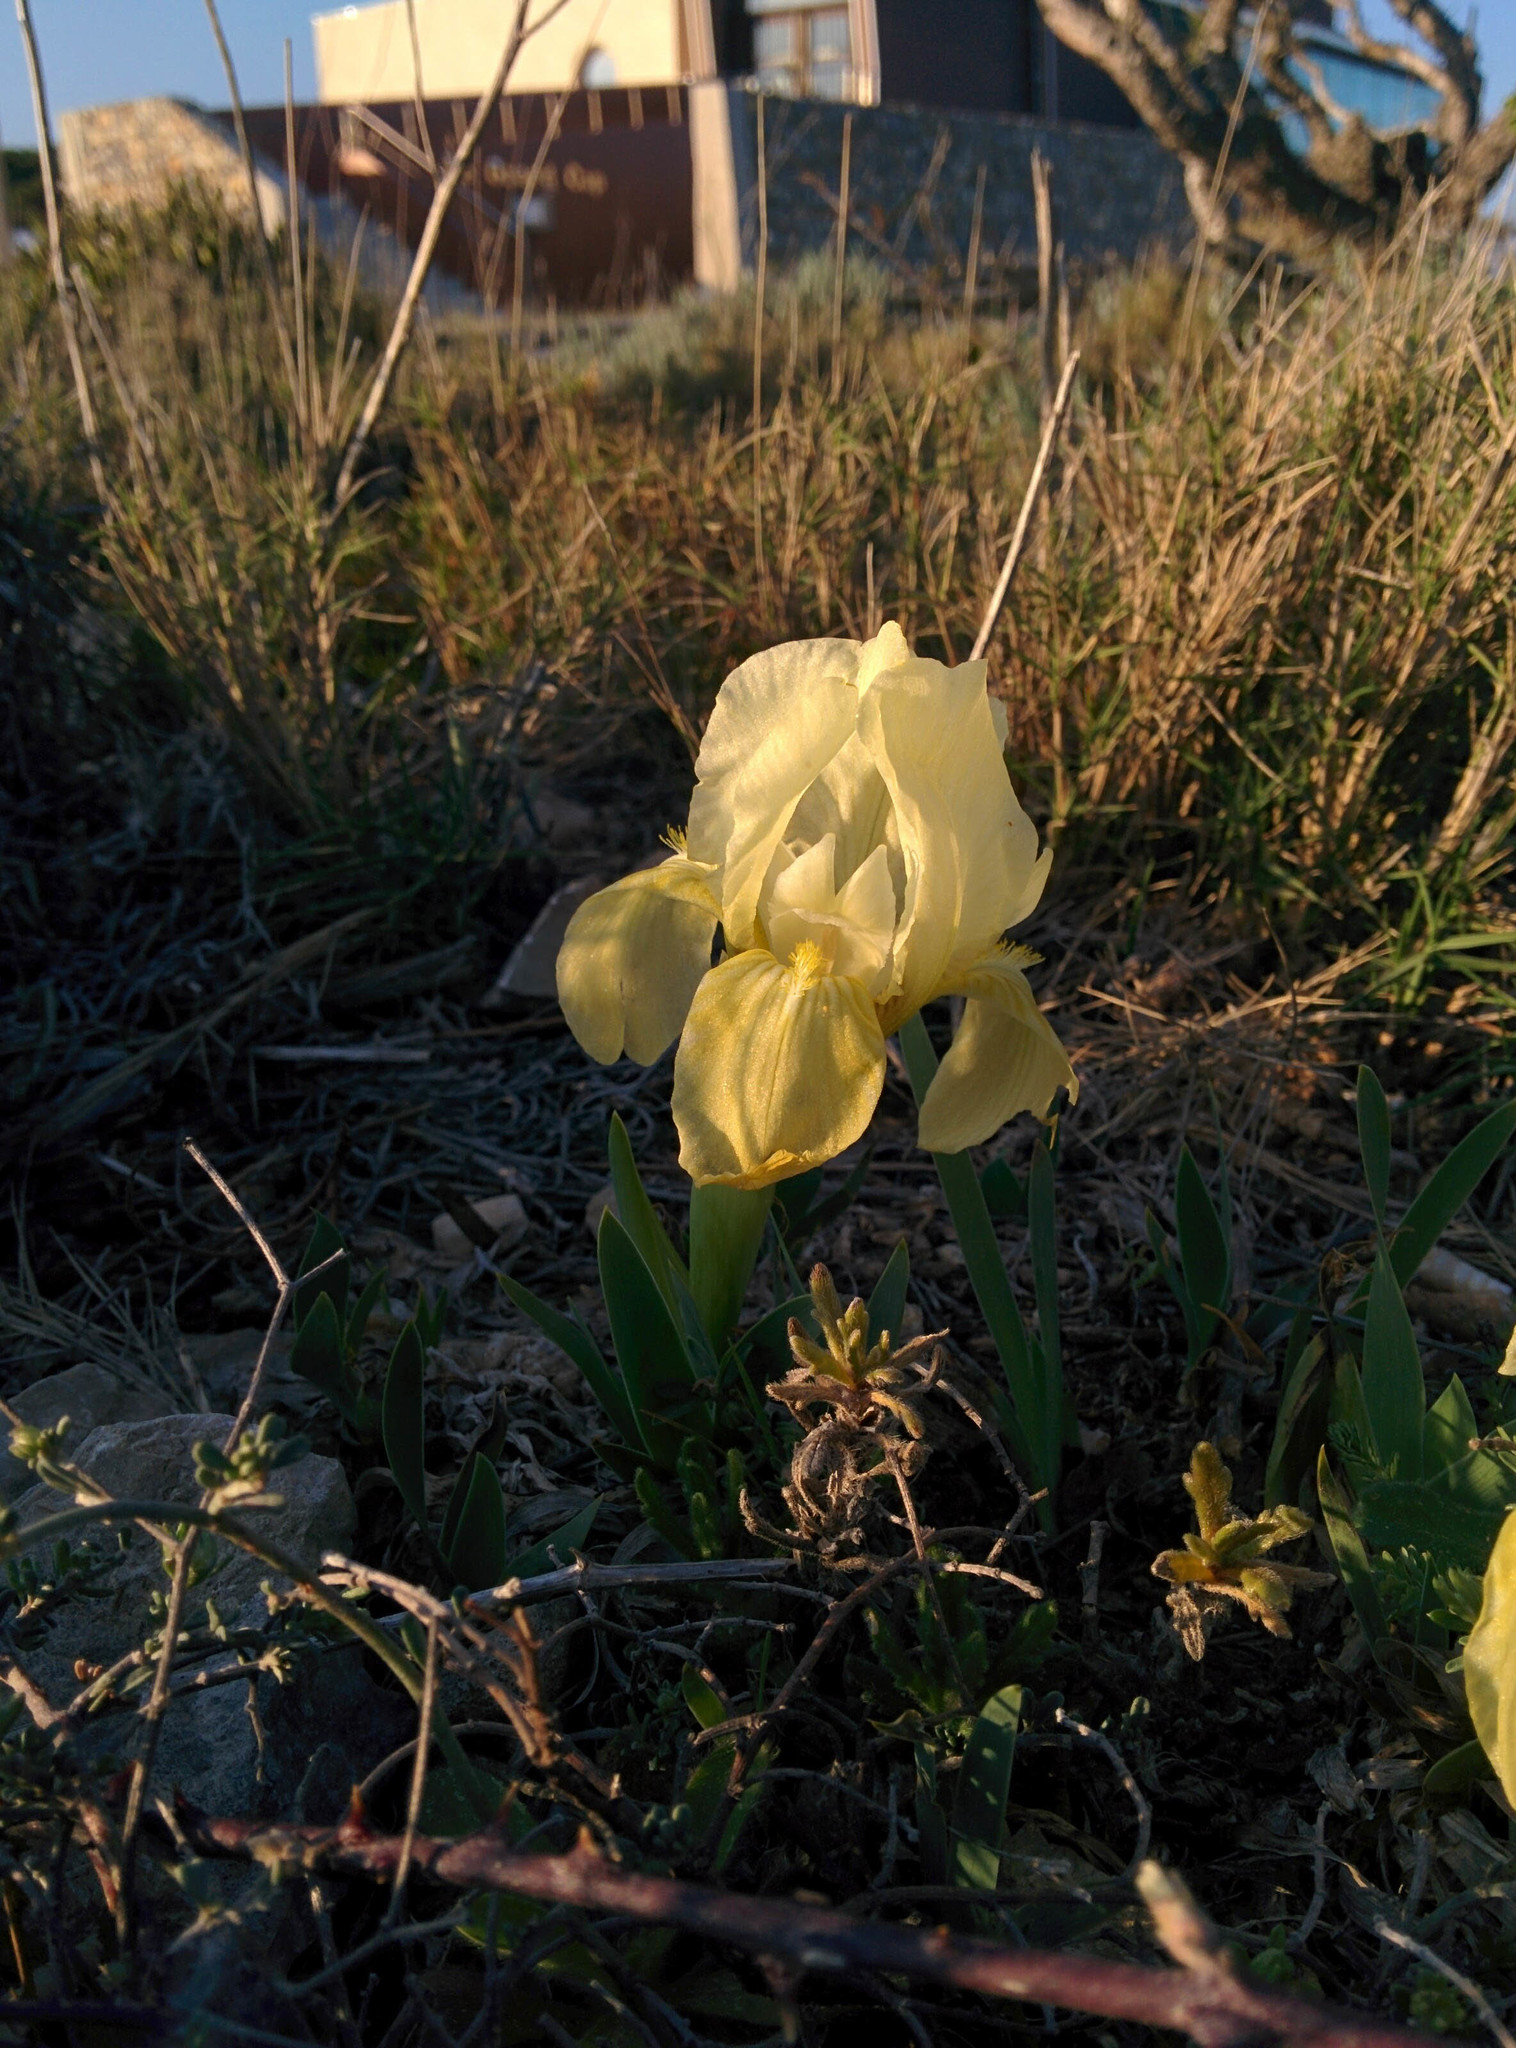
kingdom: Plantae
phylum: Tracheophyta
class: Liliopsida
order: Asparagales
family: Iridaceae
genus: Iris
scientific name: Iris lutescens
